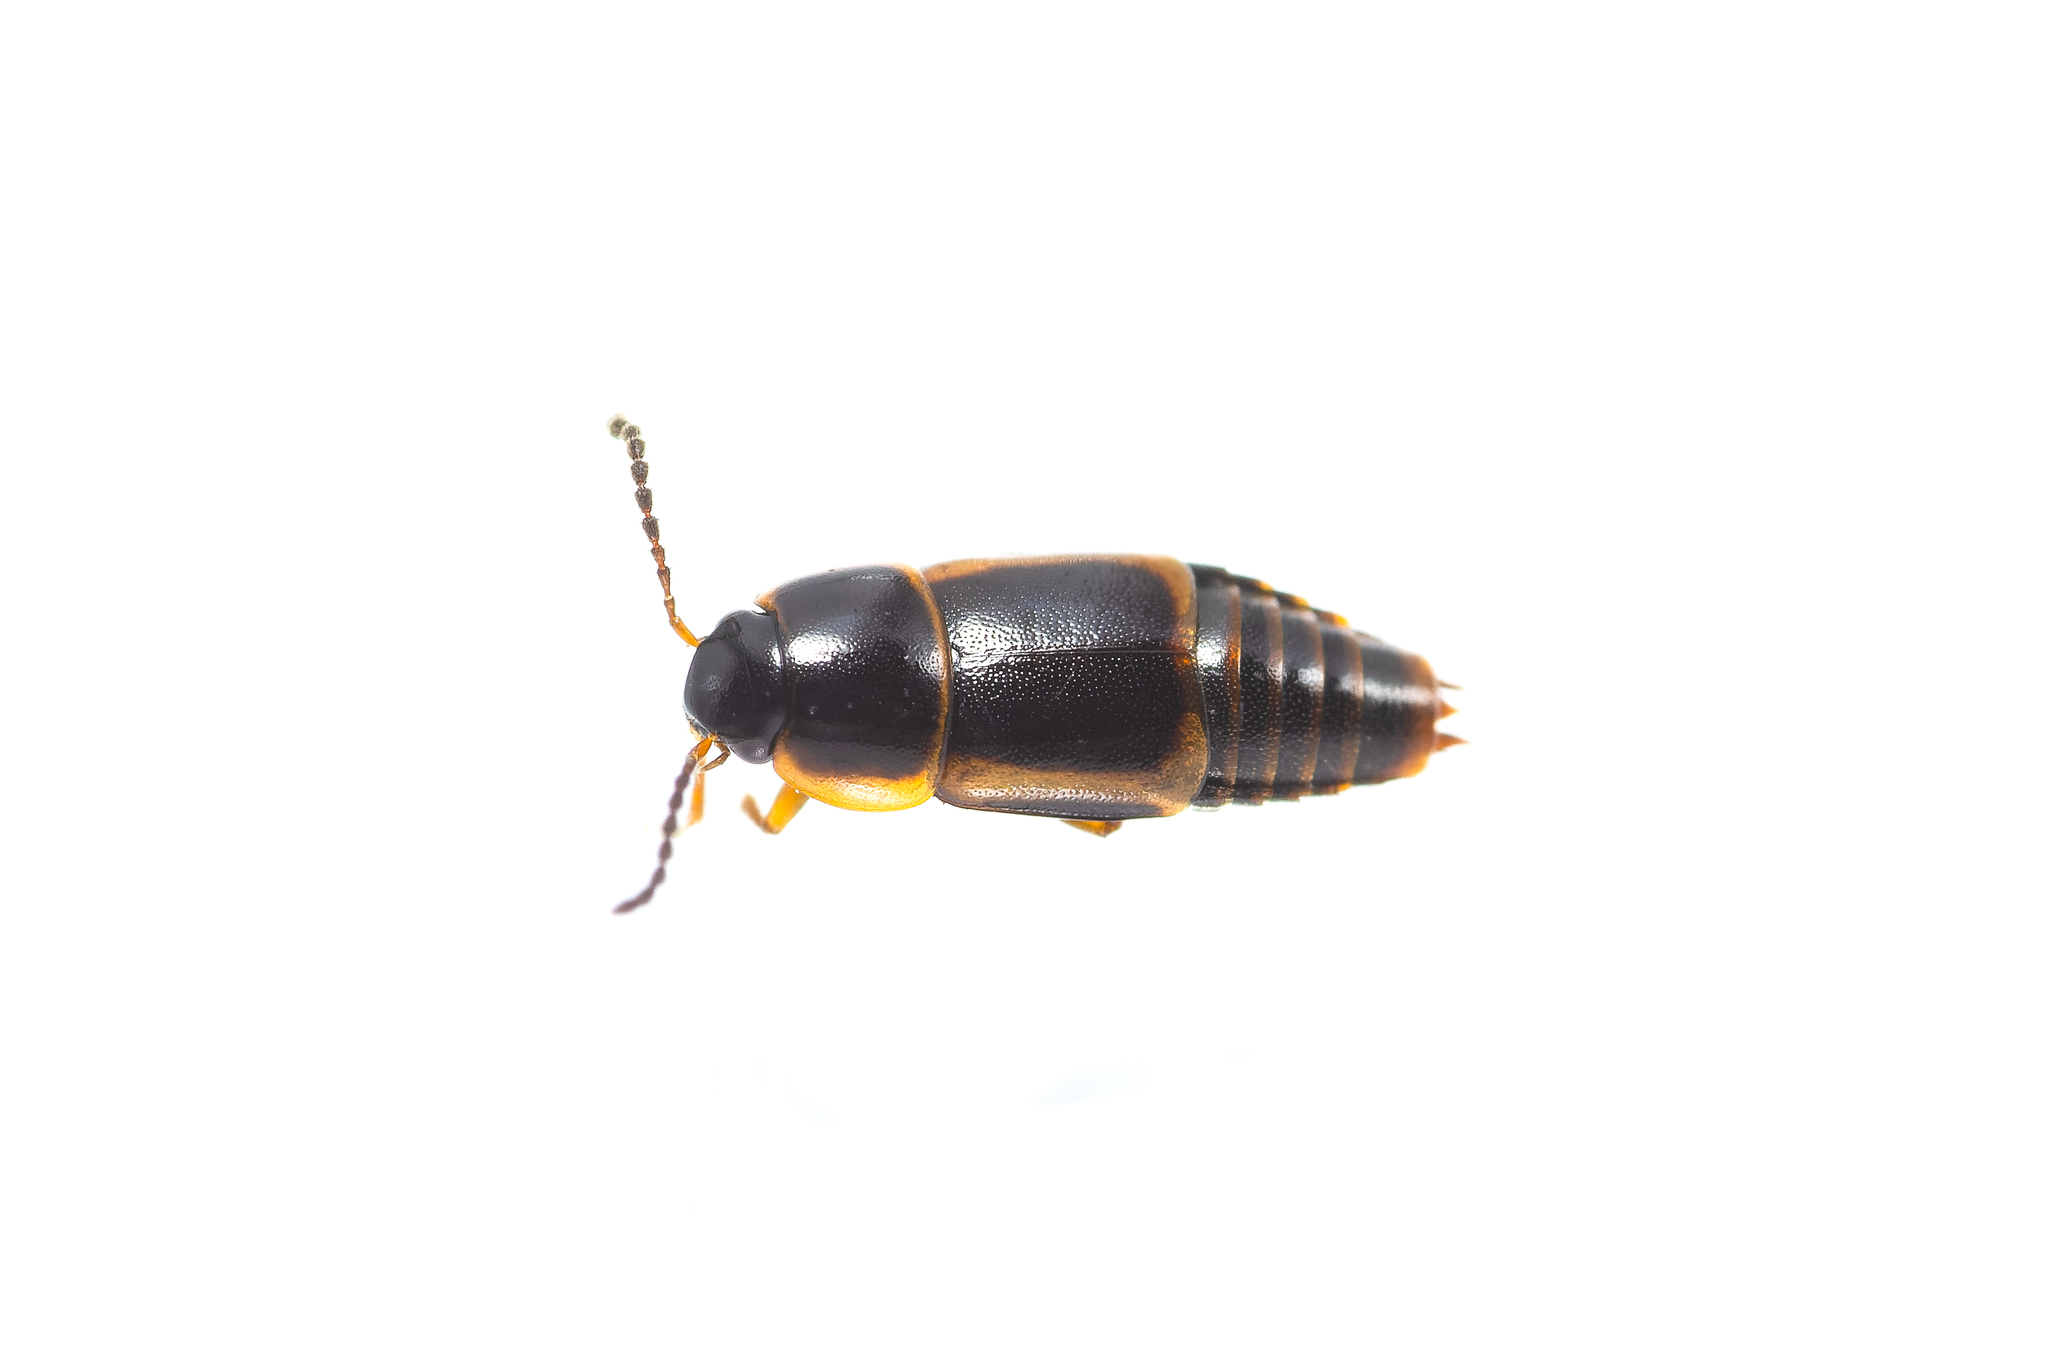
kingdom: Animalia
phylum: Arthropoda
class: Insecta
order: Coleoptera
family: Staphylinidae
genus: Tachinus
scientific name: Tachinus flavolimbatus
